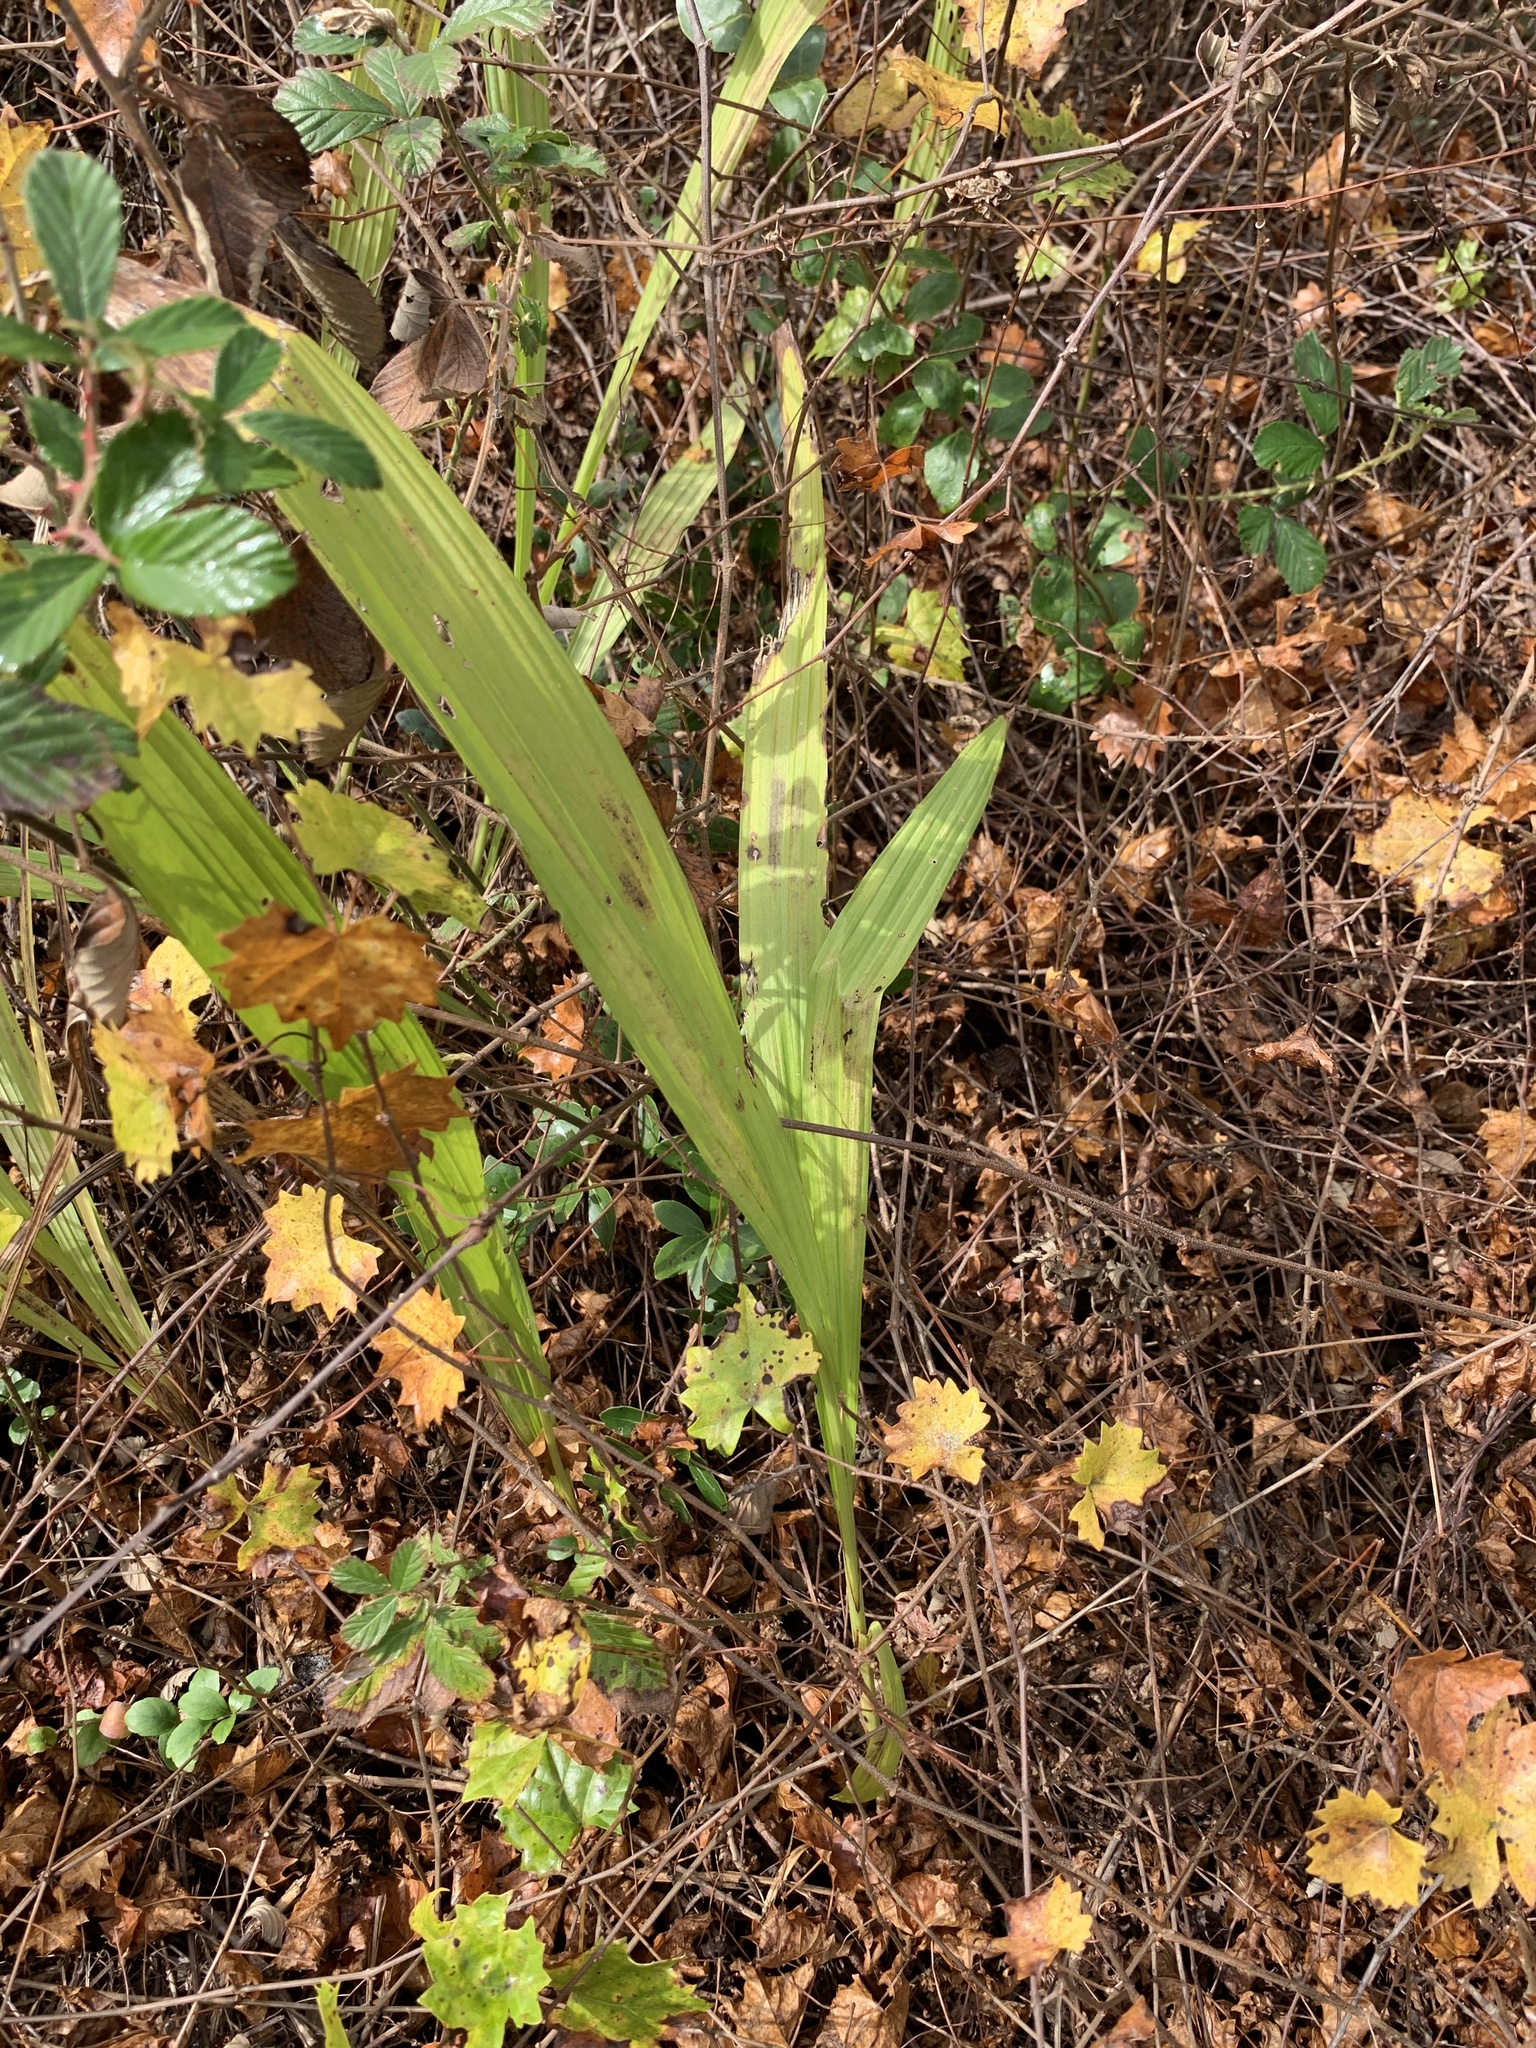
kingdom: Plantae
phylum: Tracheophyta
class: Liliopsida
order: Asparagales
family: Orchidaceae
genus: Eulophia
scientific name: Eulophia alta
